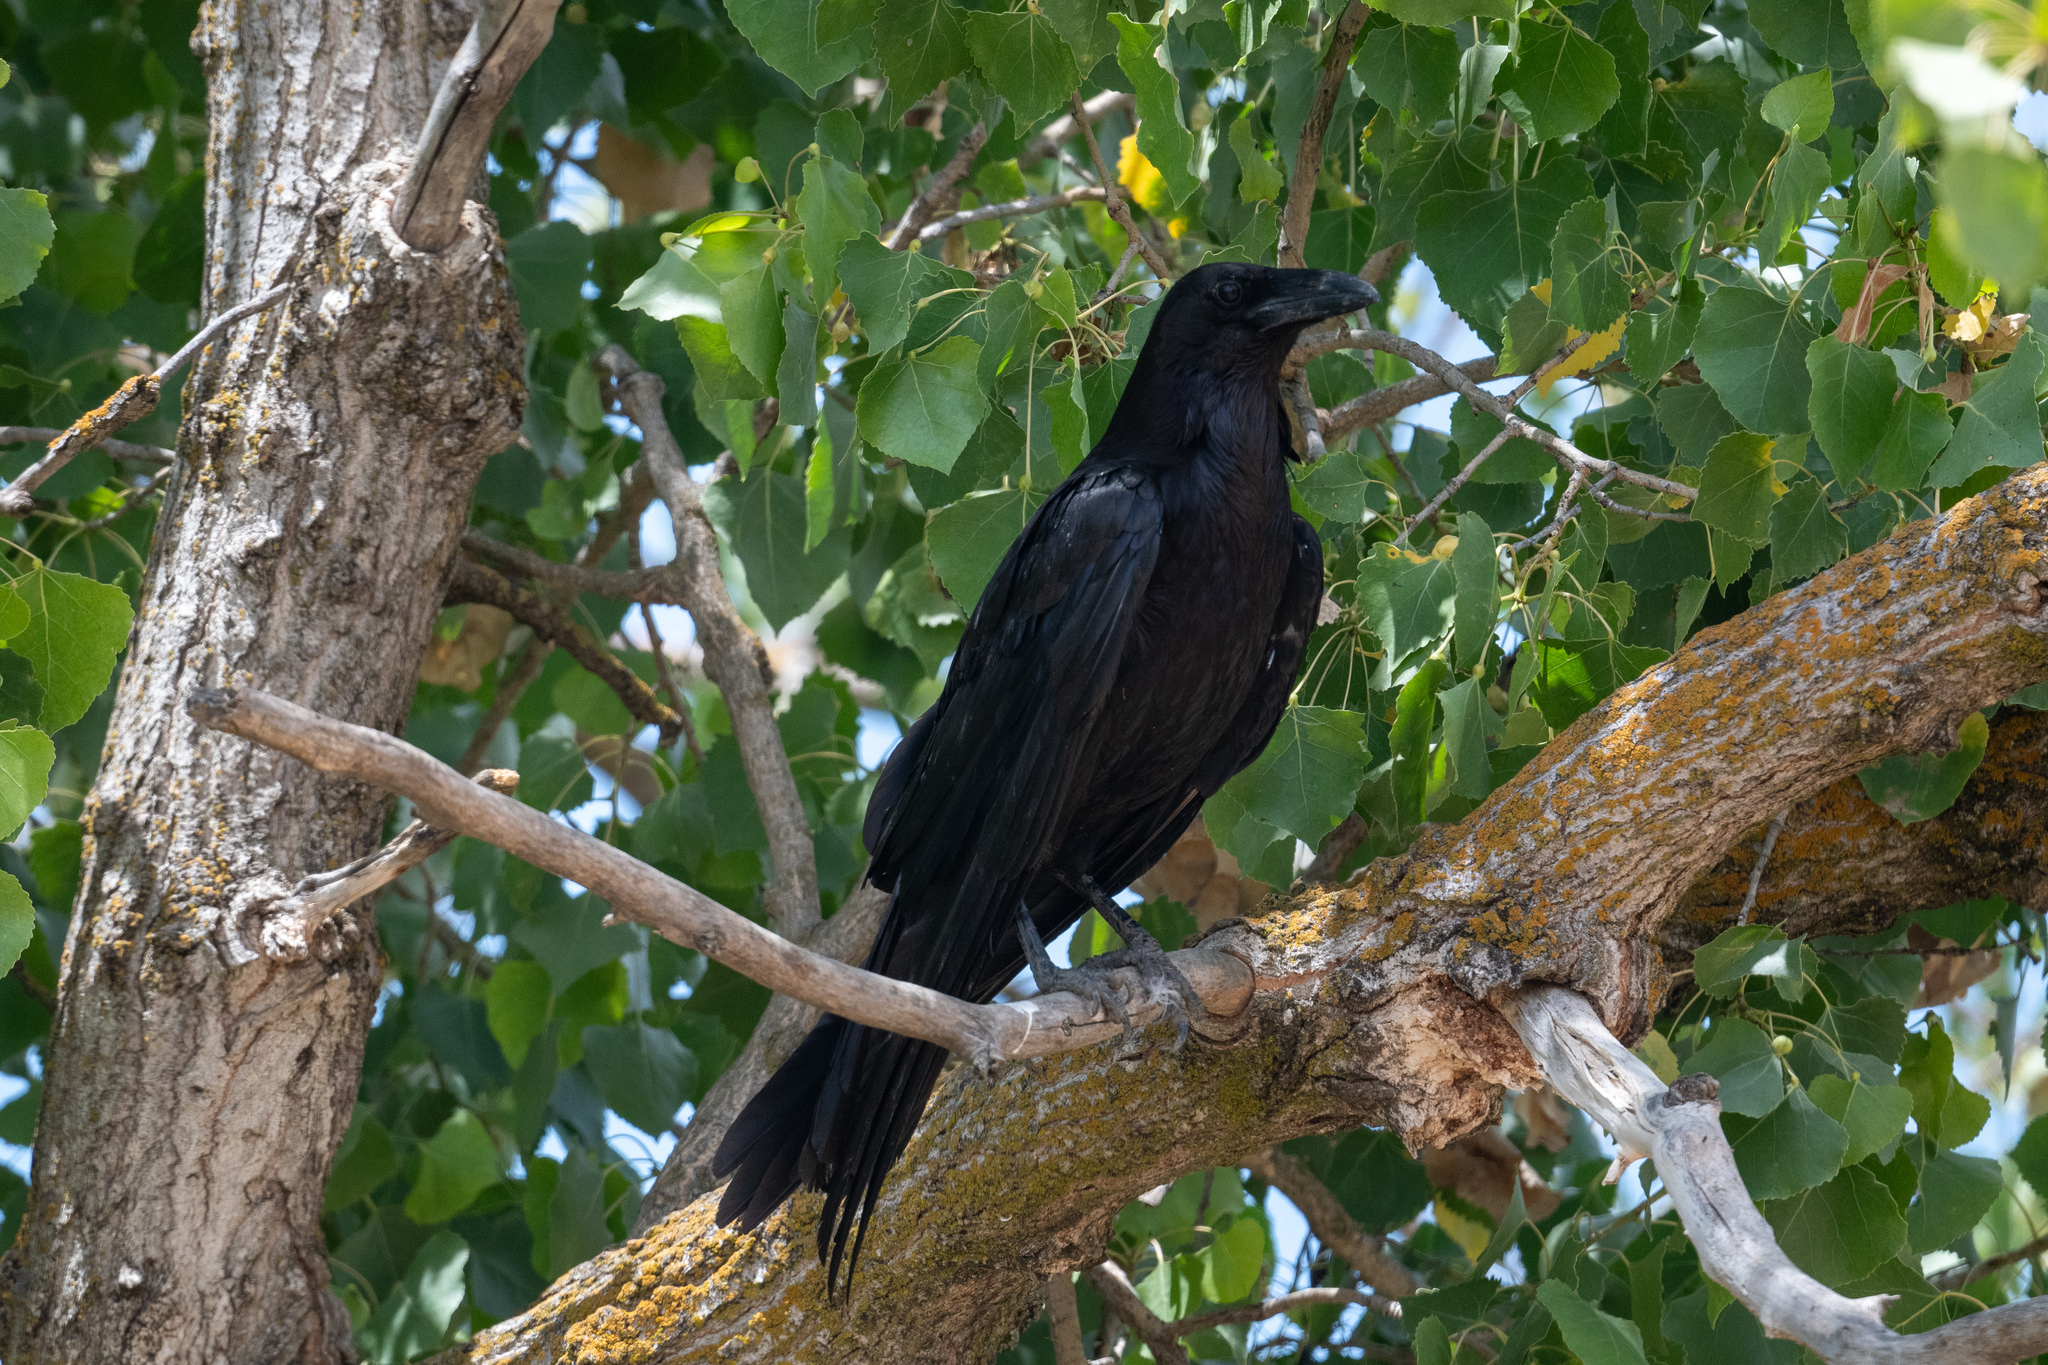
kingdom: Animalia
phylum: Chordata
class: Aves
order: Passeriformes
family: Corvidae
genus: Corvus
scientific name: Corvus corax
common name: Common raven
